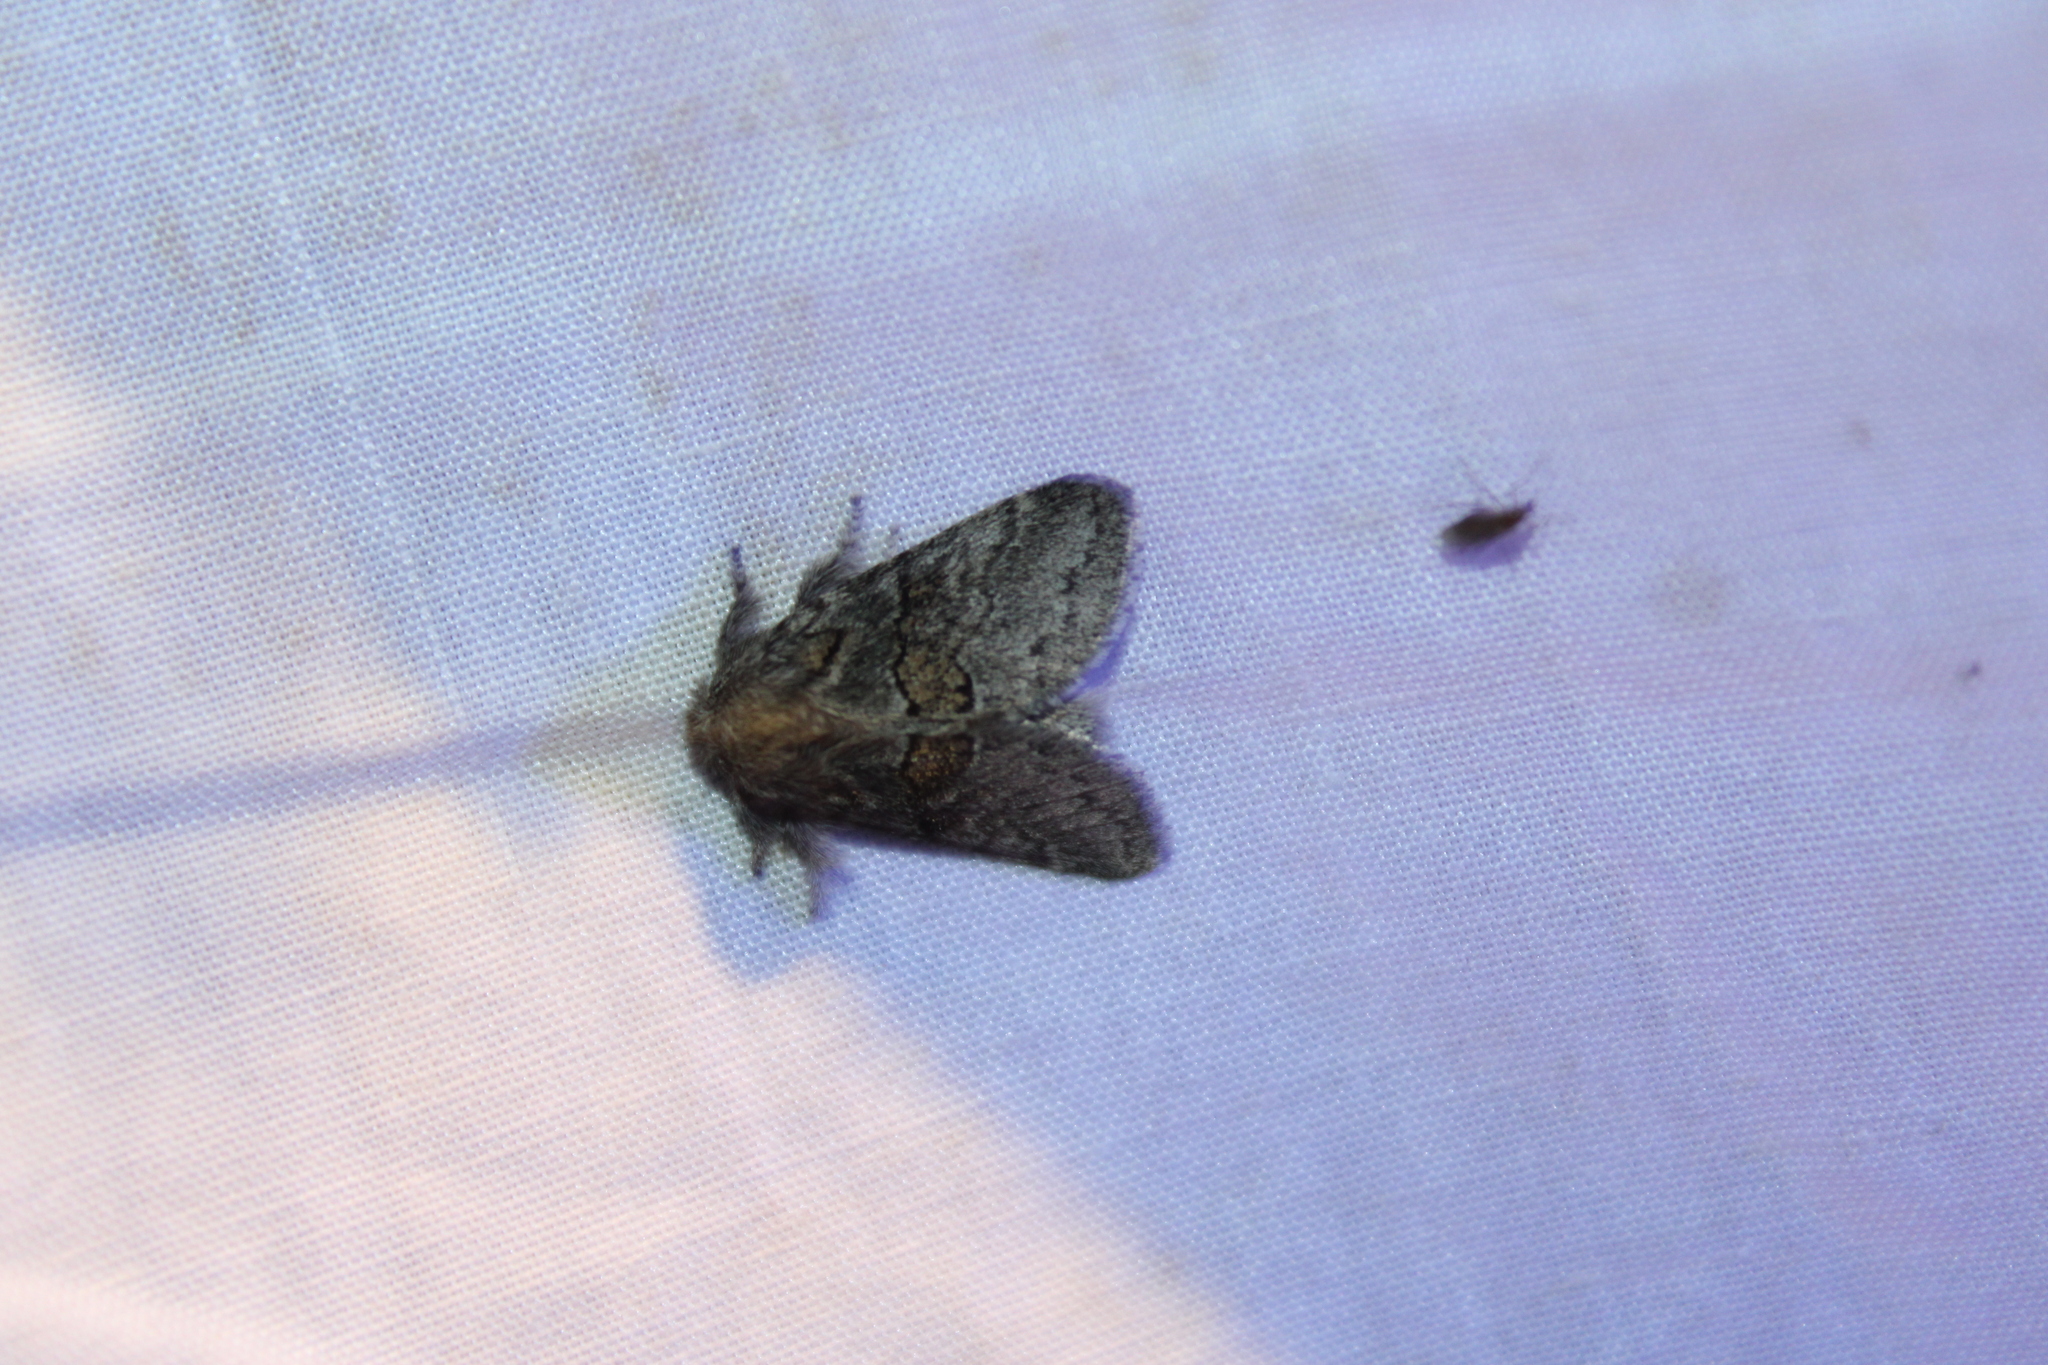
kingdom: Animalia
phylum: Arthropoda
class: Insecta
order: Lepidoptera
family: Notodontidae
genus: Gluphisia
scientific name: Gluphisia septentrionis
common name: Common gluphisia
